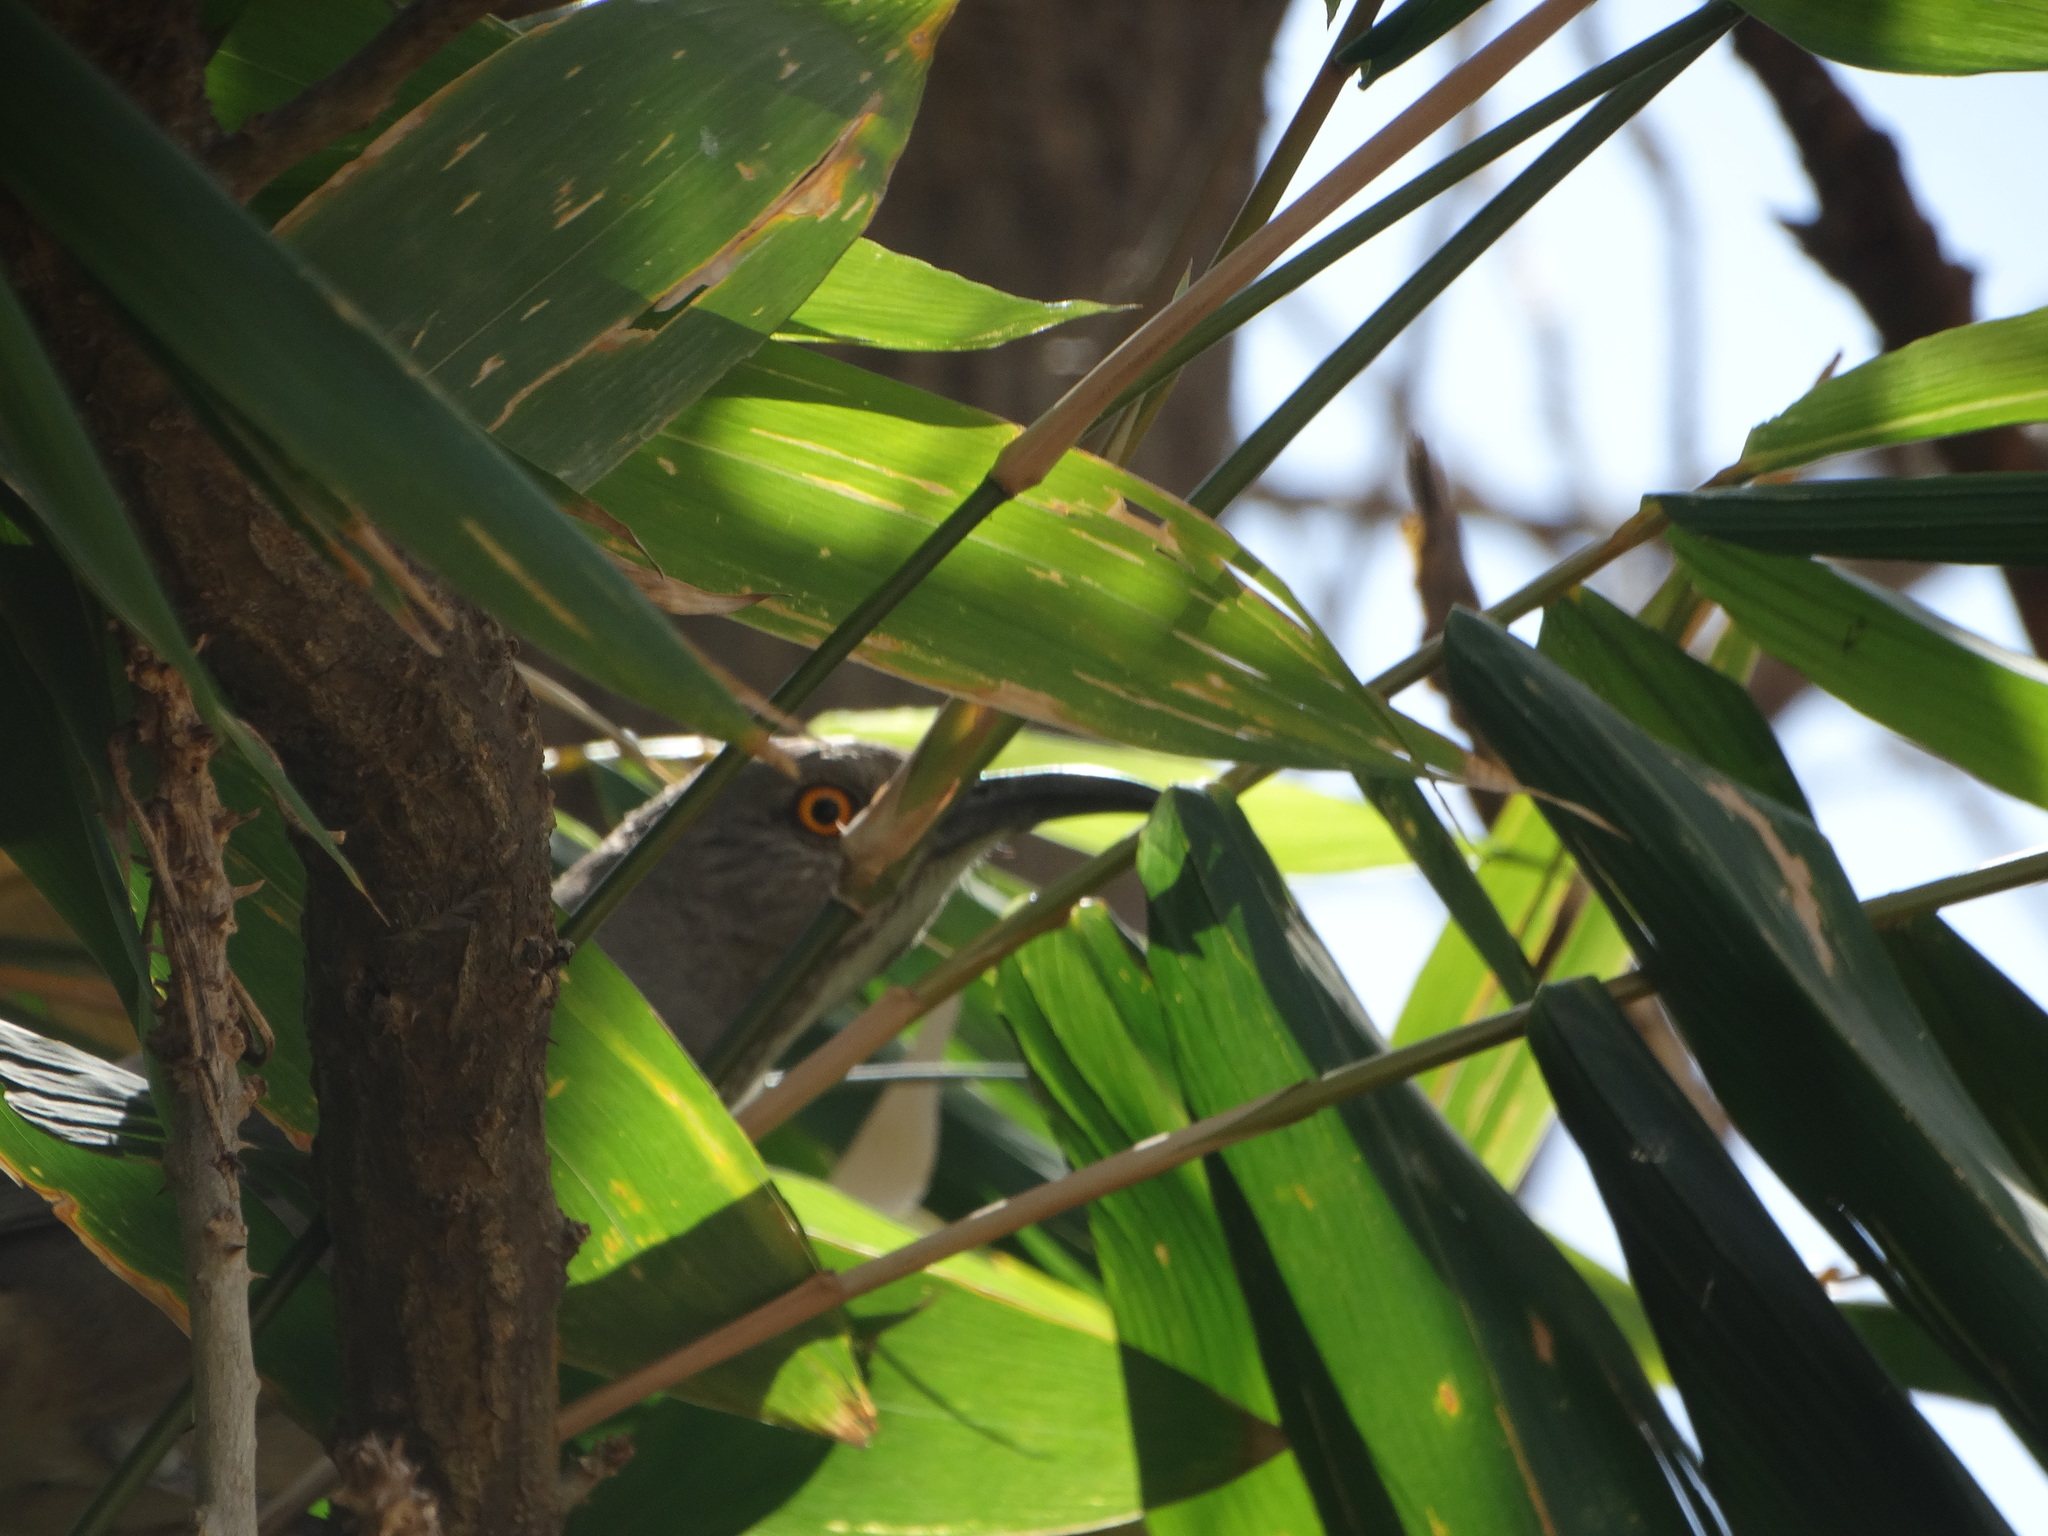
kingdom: Animalia
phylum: Chordata
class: Aves
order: Passeriformes
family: Mimidae
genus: Toxostoma
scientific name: Toxostoma curvirostre
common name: Curve-billed thrasher
